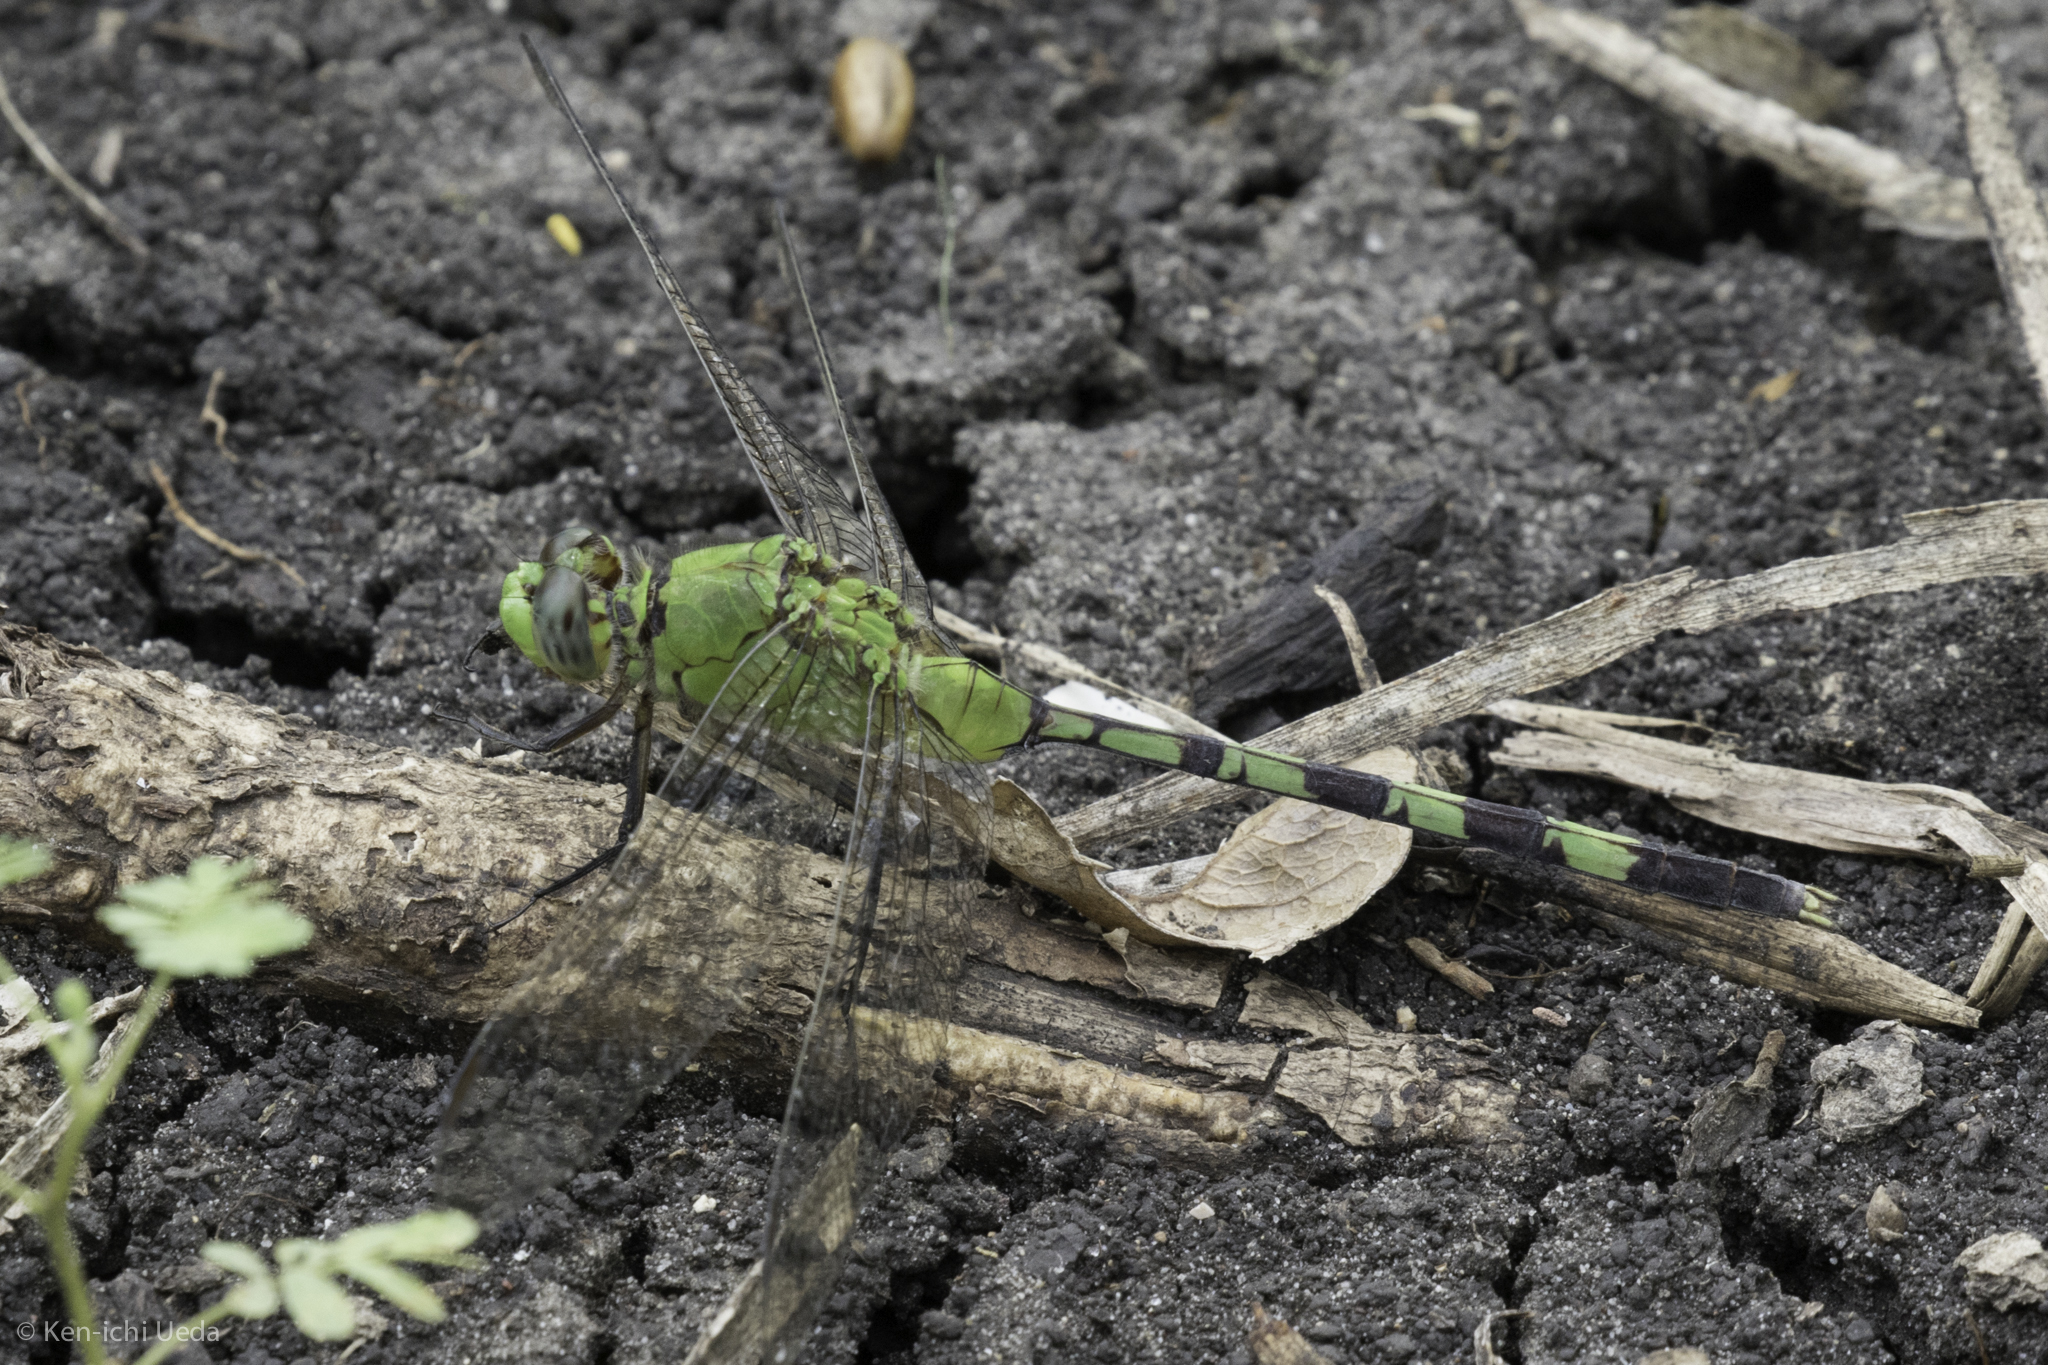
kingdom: Animalia
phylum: Arthropoda
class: Insecta
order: Odonata
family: Libellulidae
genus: Erythemis
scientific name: Erythemis vesiculosa
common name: Great pondhawk
